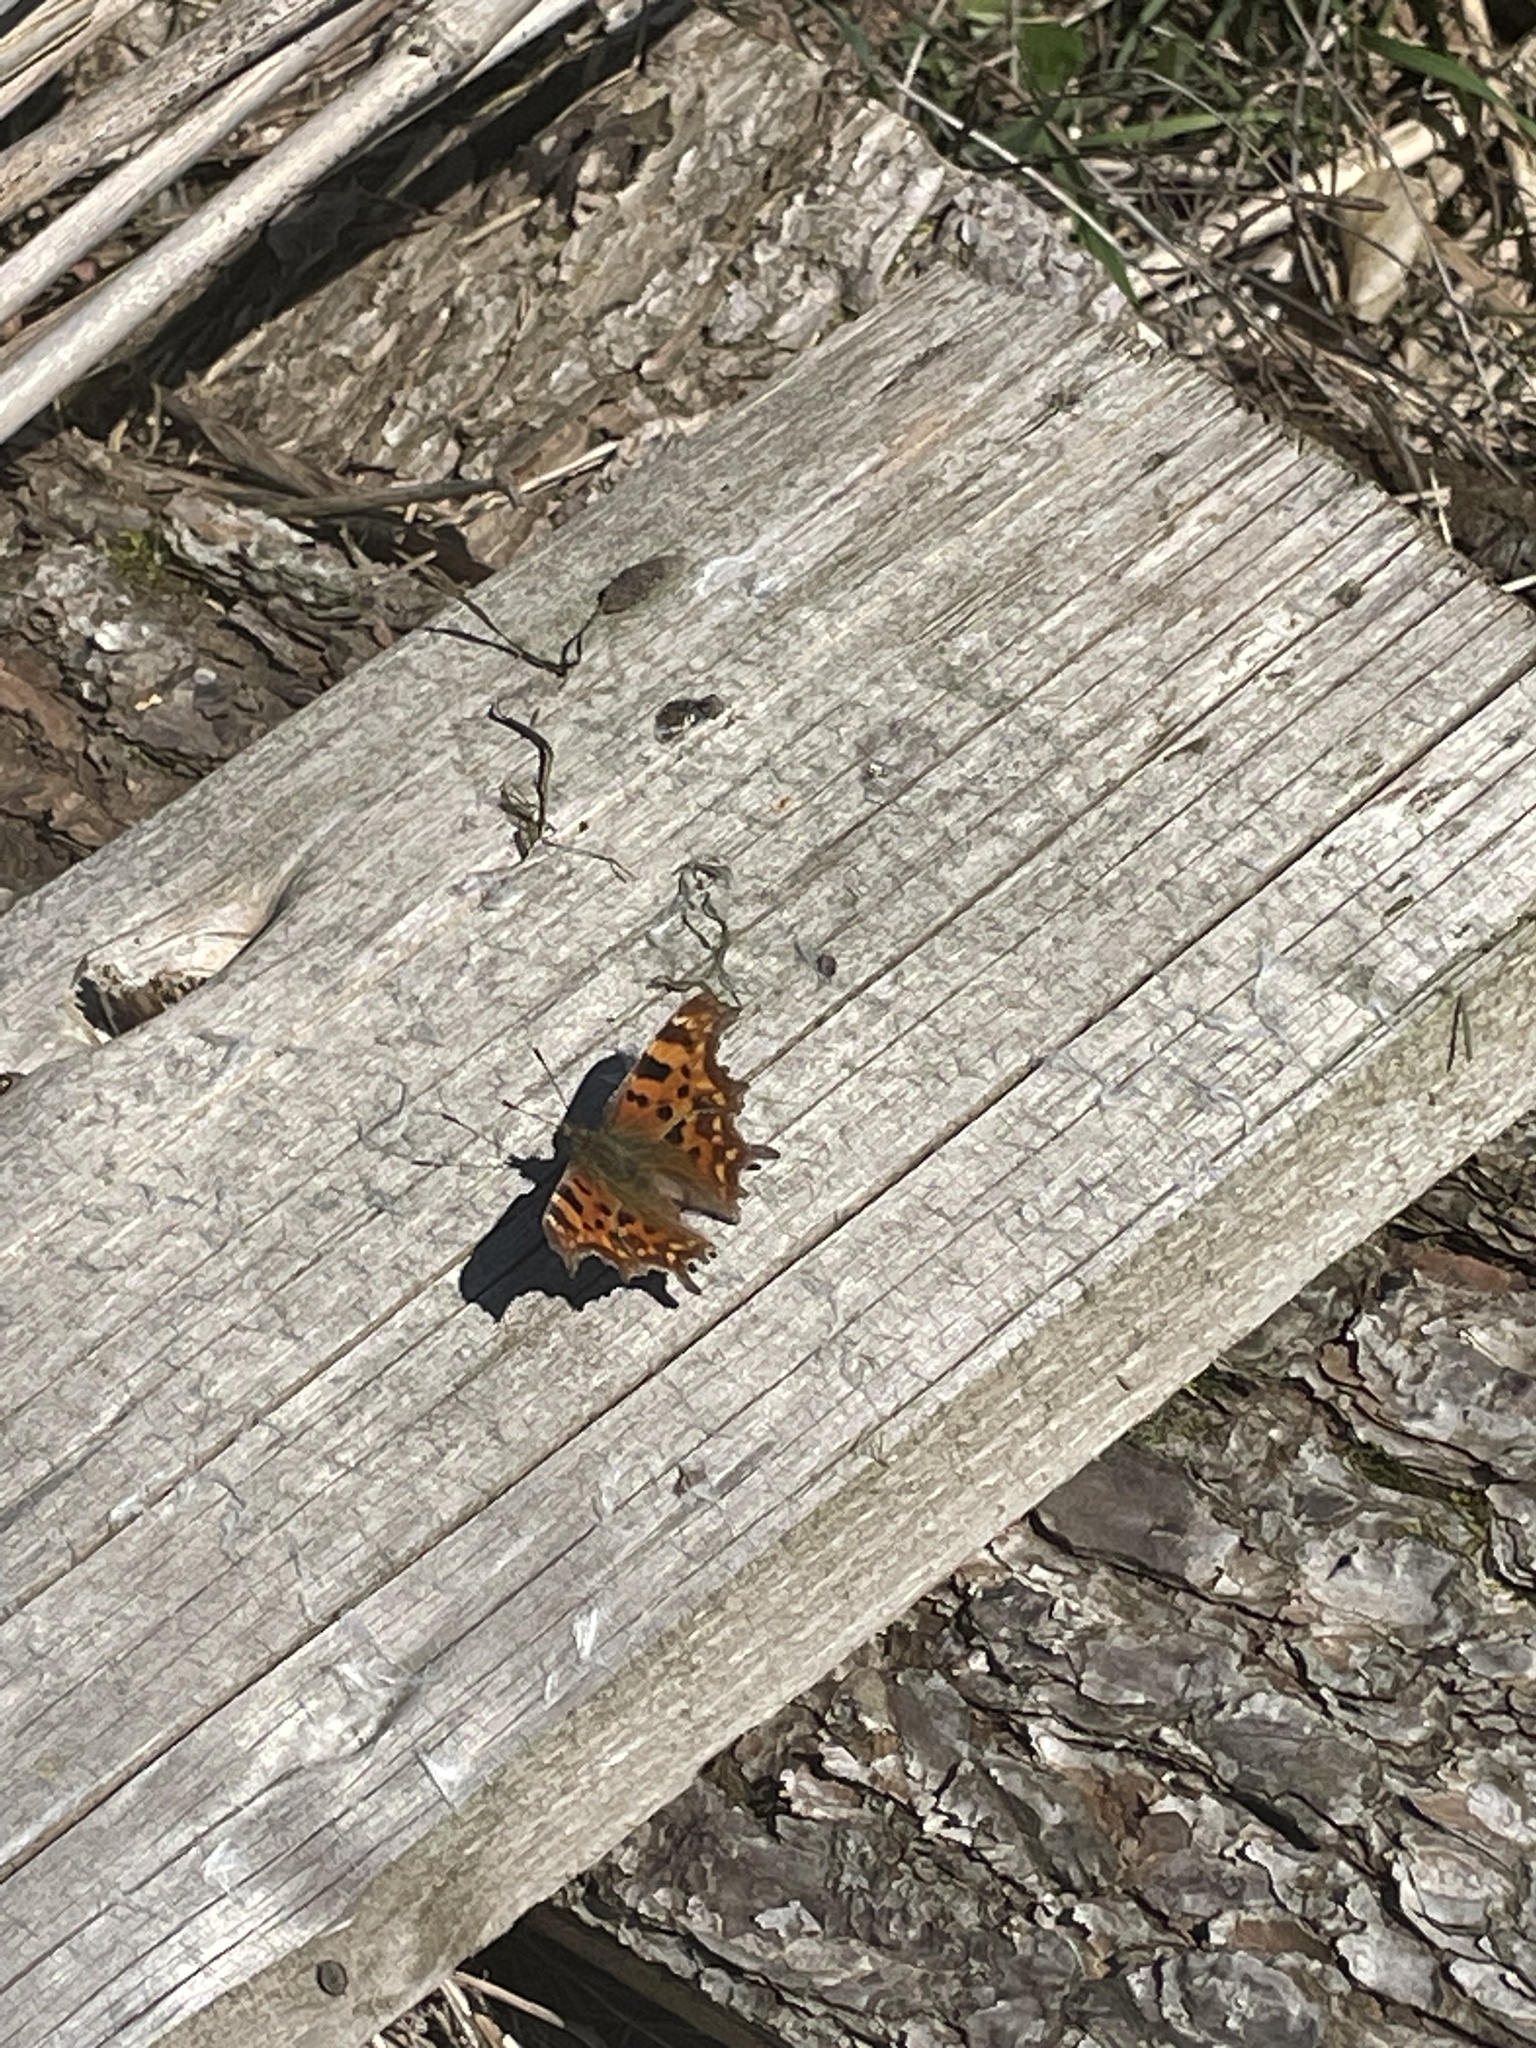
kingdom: Animalia
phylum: Arthropoda
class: Insecta
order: Lepidoptera
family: Nymphalidae
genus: Polygonia
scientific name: Polygonia c-album
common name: Comma
